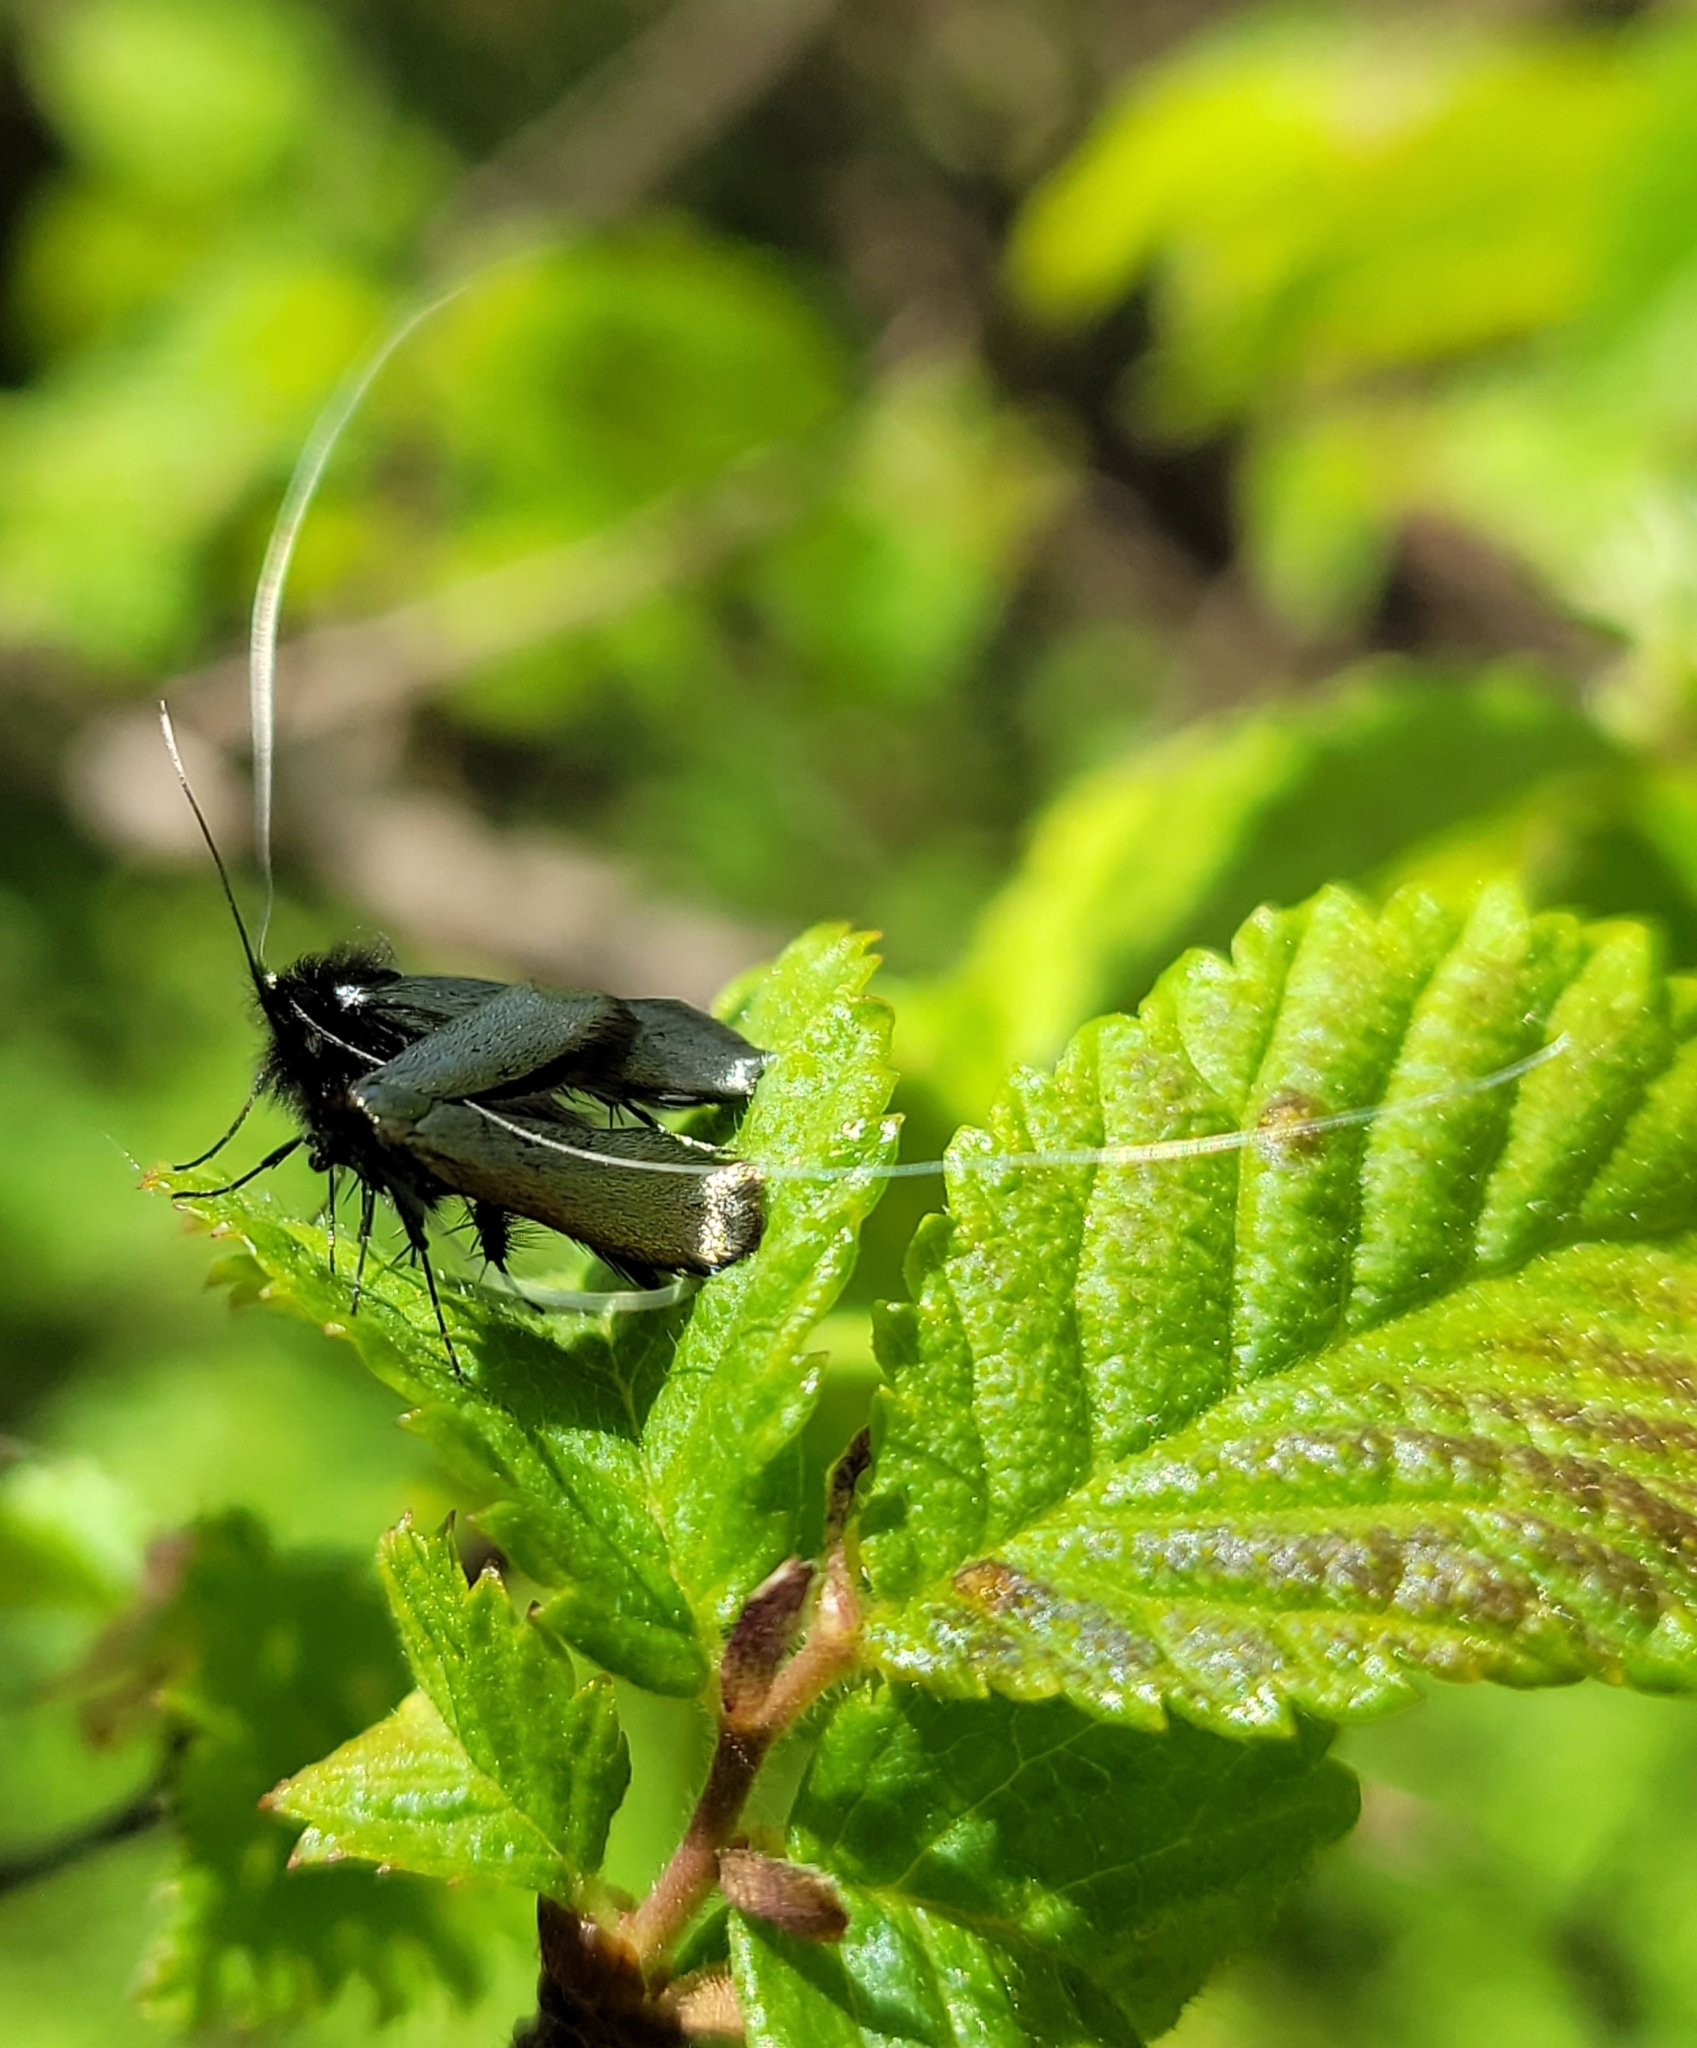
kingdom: Animalia
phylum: Arthropoda
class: Insecta
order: Lepidoptera
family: Adelidae
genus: Adela
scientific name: Adela viridella
